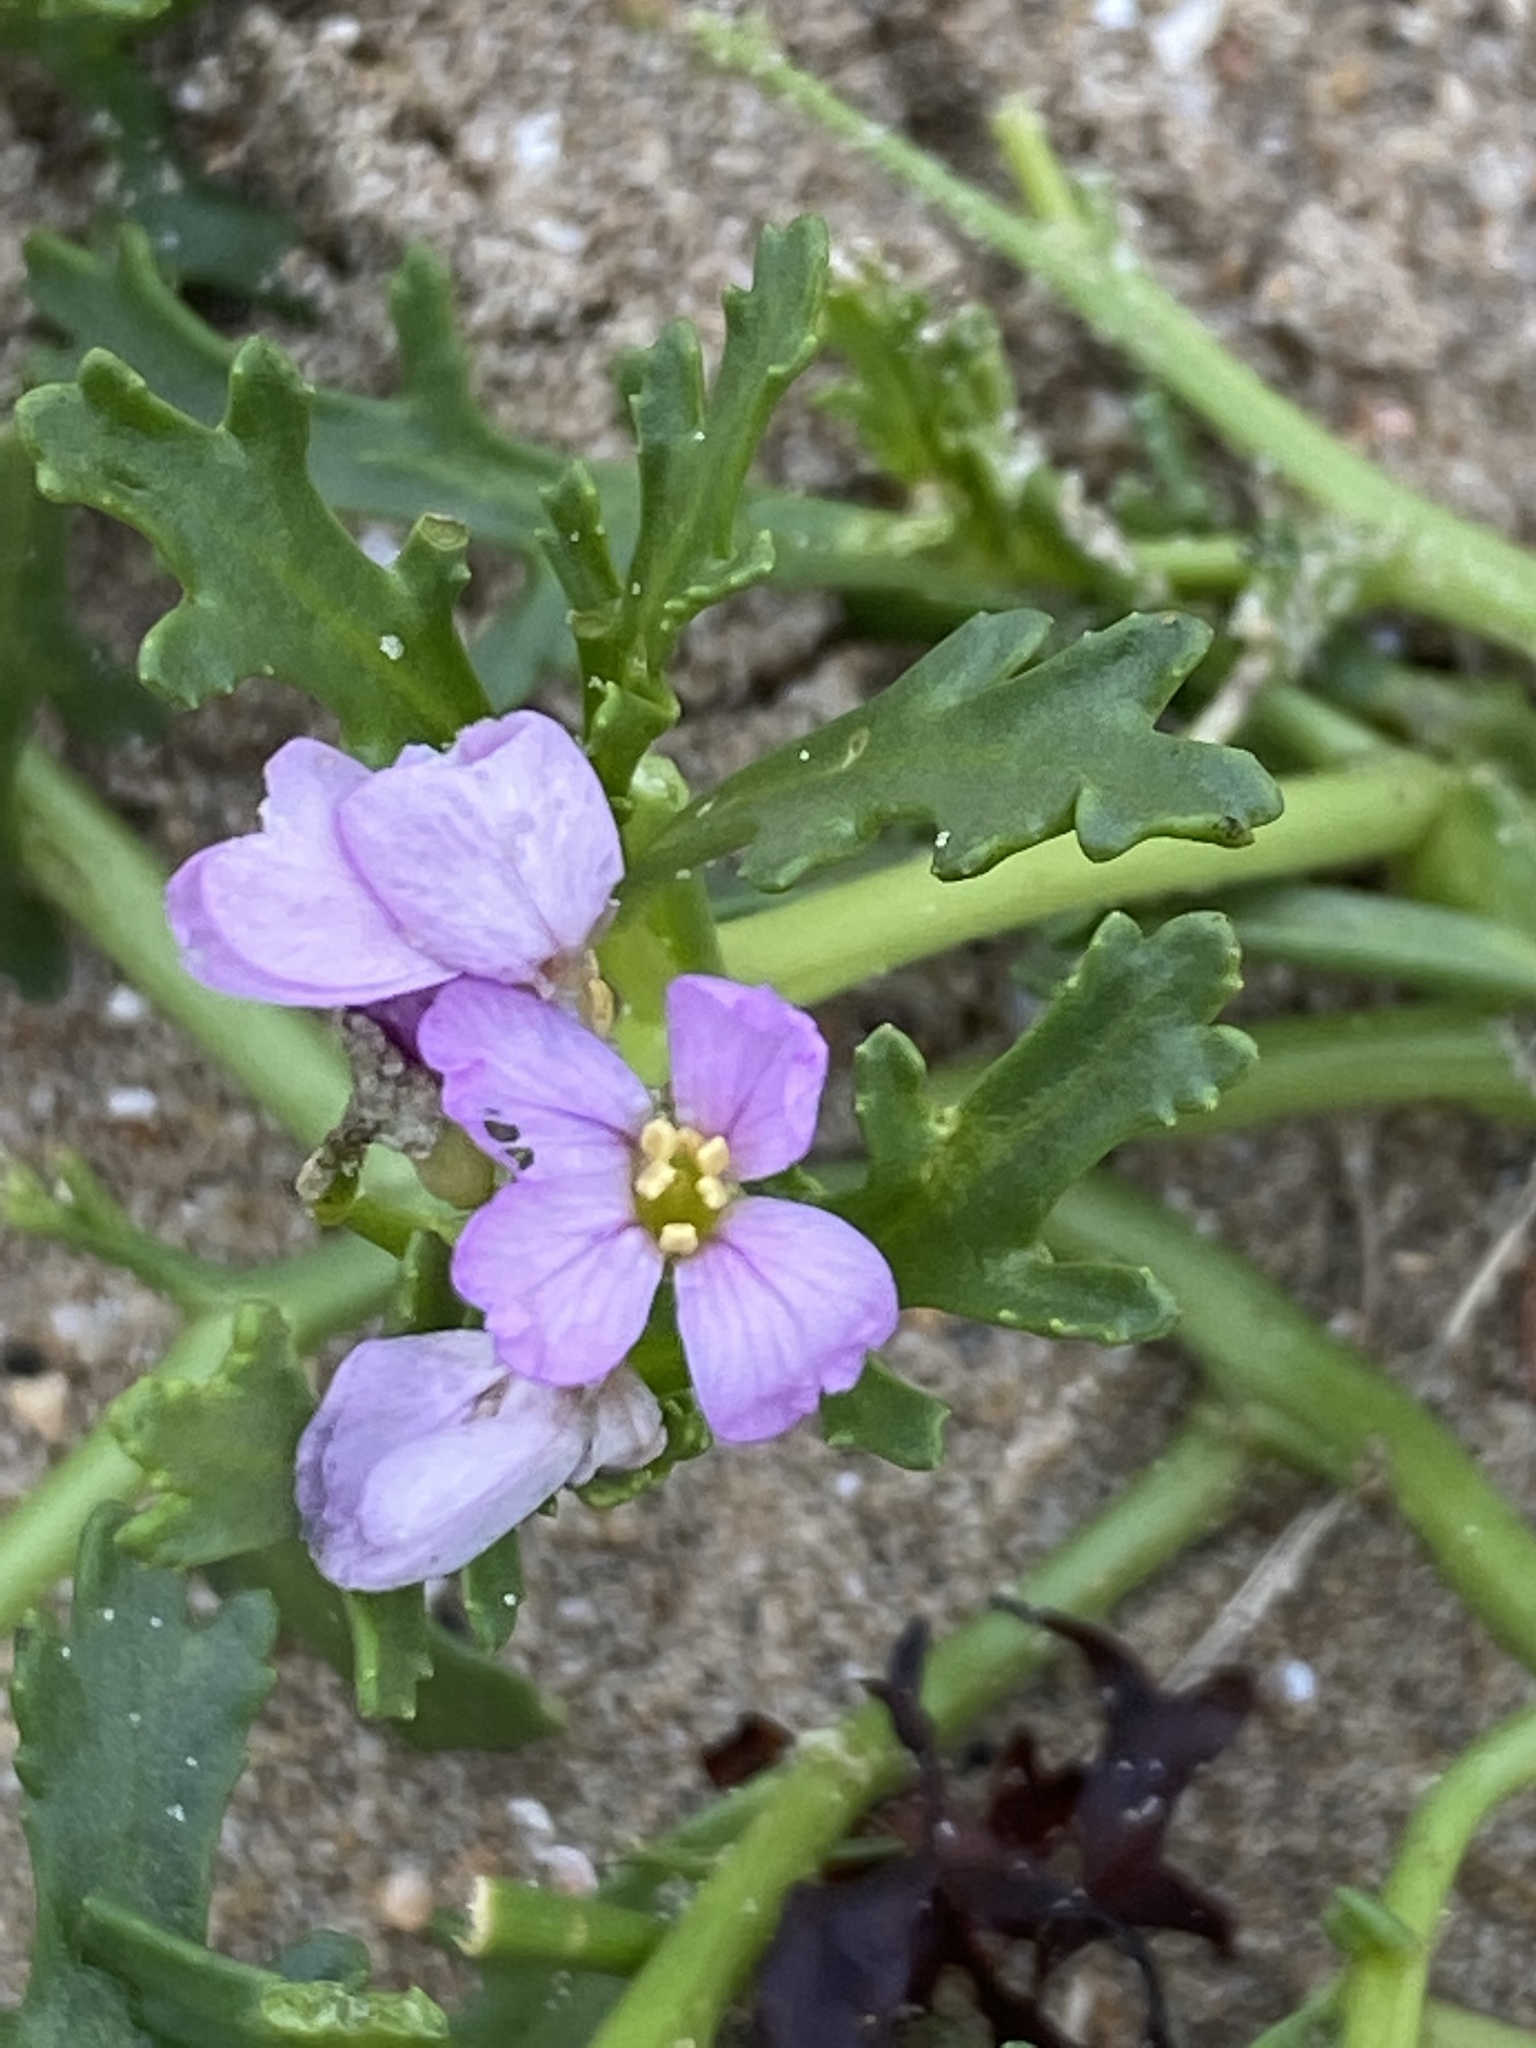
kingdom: Plantae
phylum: Tracheophyta
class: Magnoliopsida
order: Brassicales
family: Brassicaceae
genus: Cakile
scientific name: Cakile maritima
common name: Sea rocket
